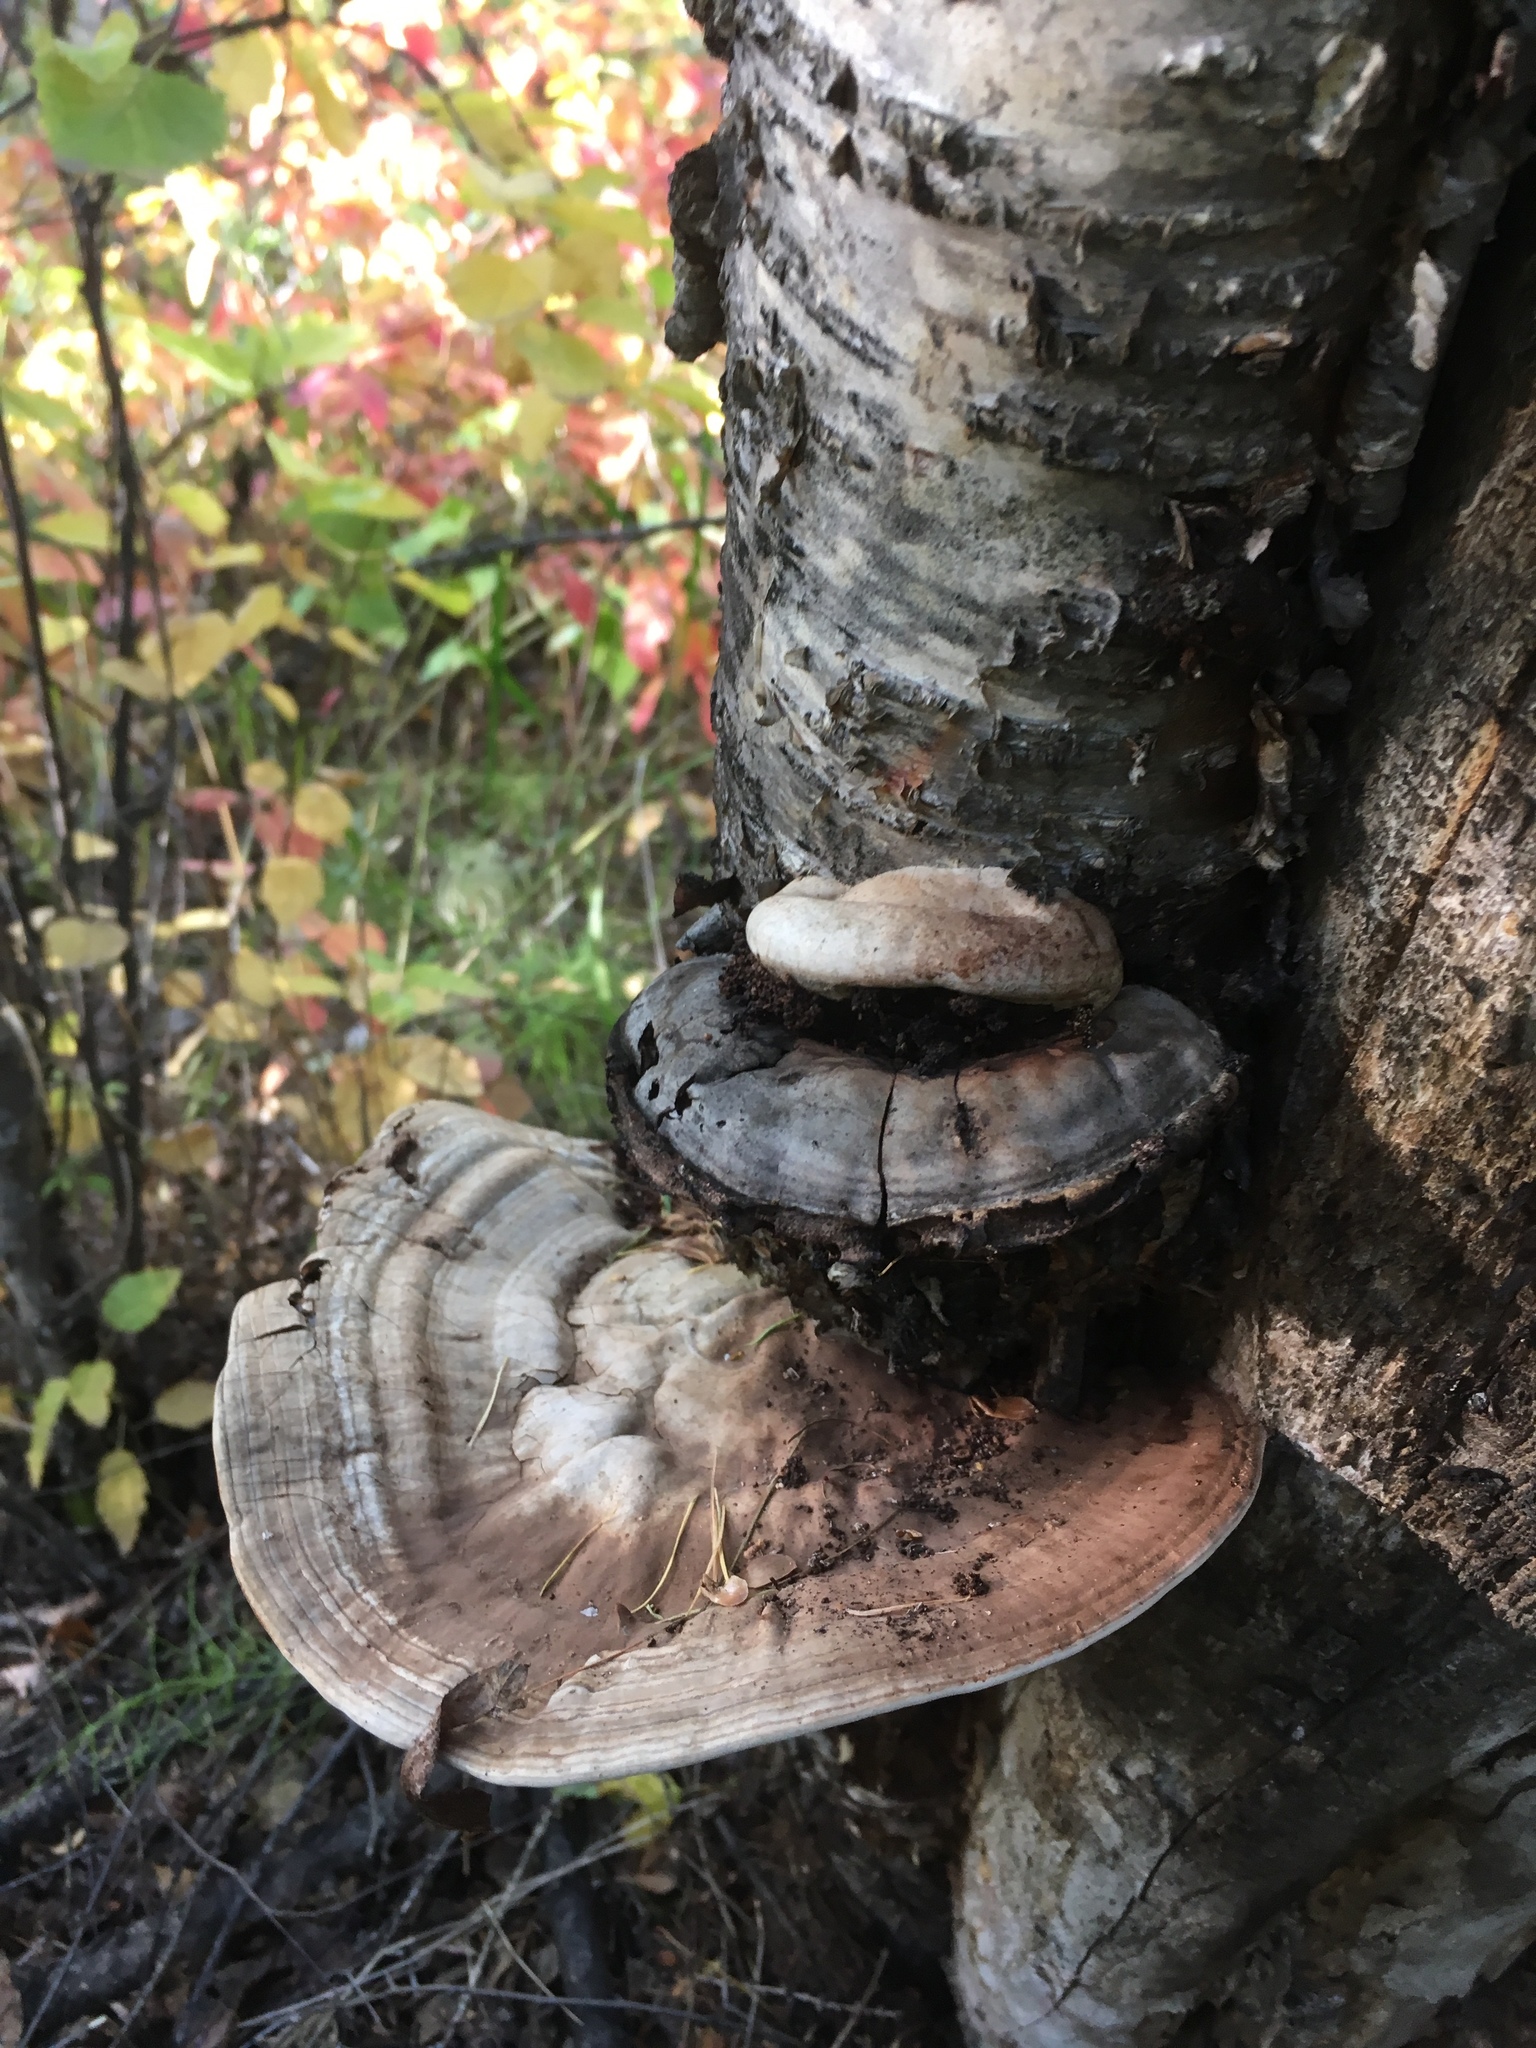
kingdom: Fungi
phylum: Basidiomycota
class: Agaricomycetes
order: Polyporales
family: Polyporaceae
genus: Ganoderma
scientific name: Ganoderma applanatum
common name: Artist's bracket
